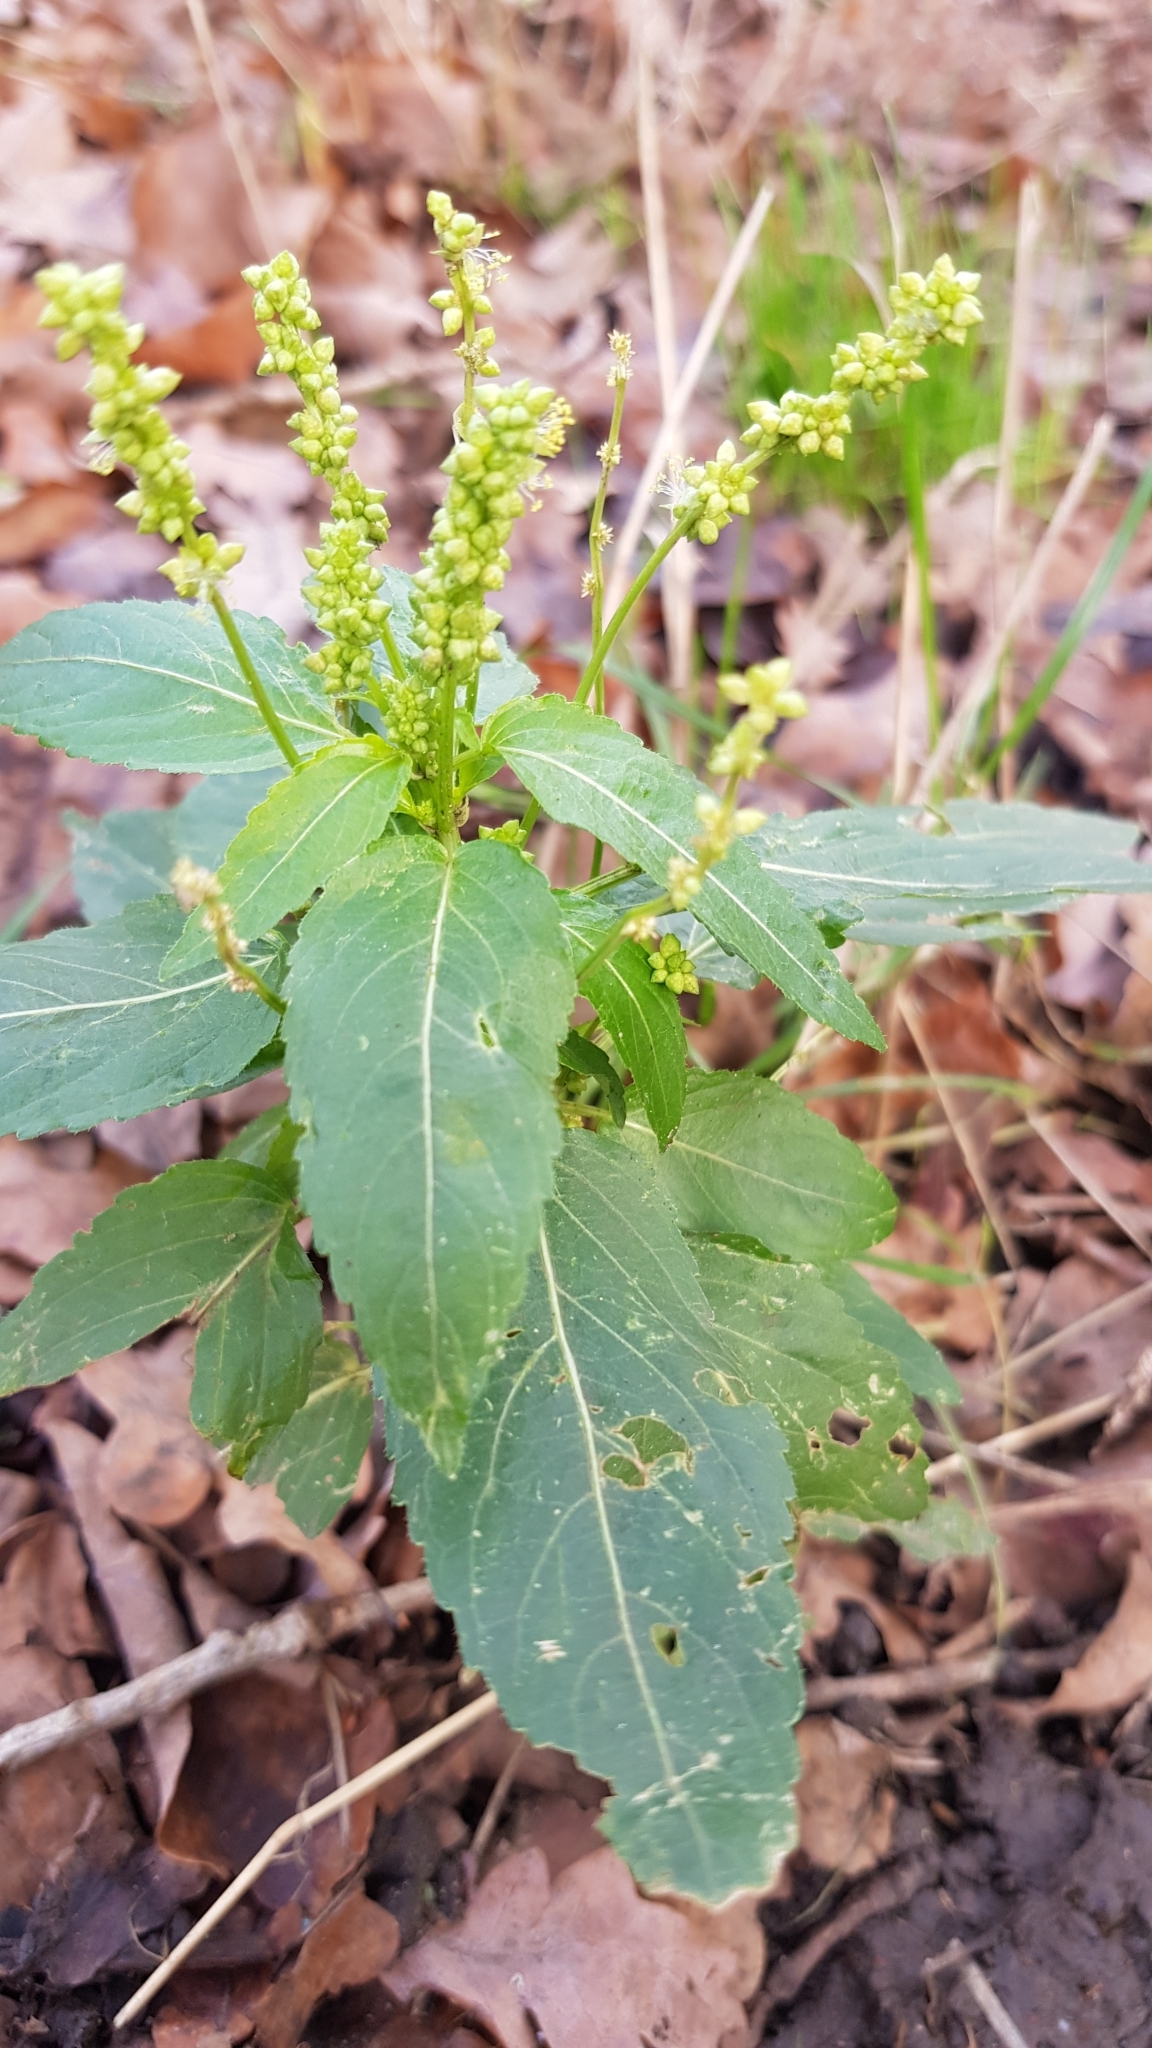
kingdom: Plantae
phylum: Tracheophyta
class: Magnoliopsida
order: Malpighiales
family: Euphorbiaceae
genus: Mercurialis
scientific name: Mercurialis annua
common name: Annual mercury
